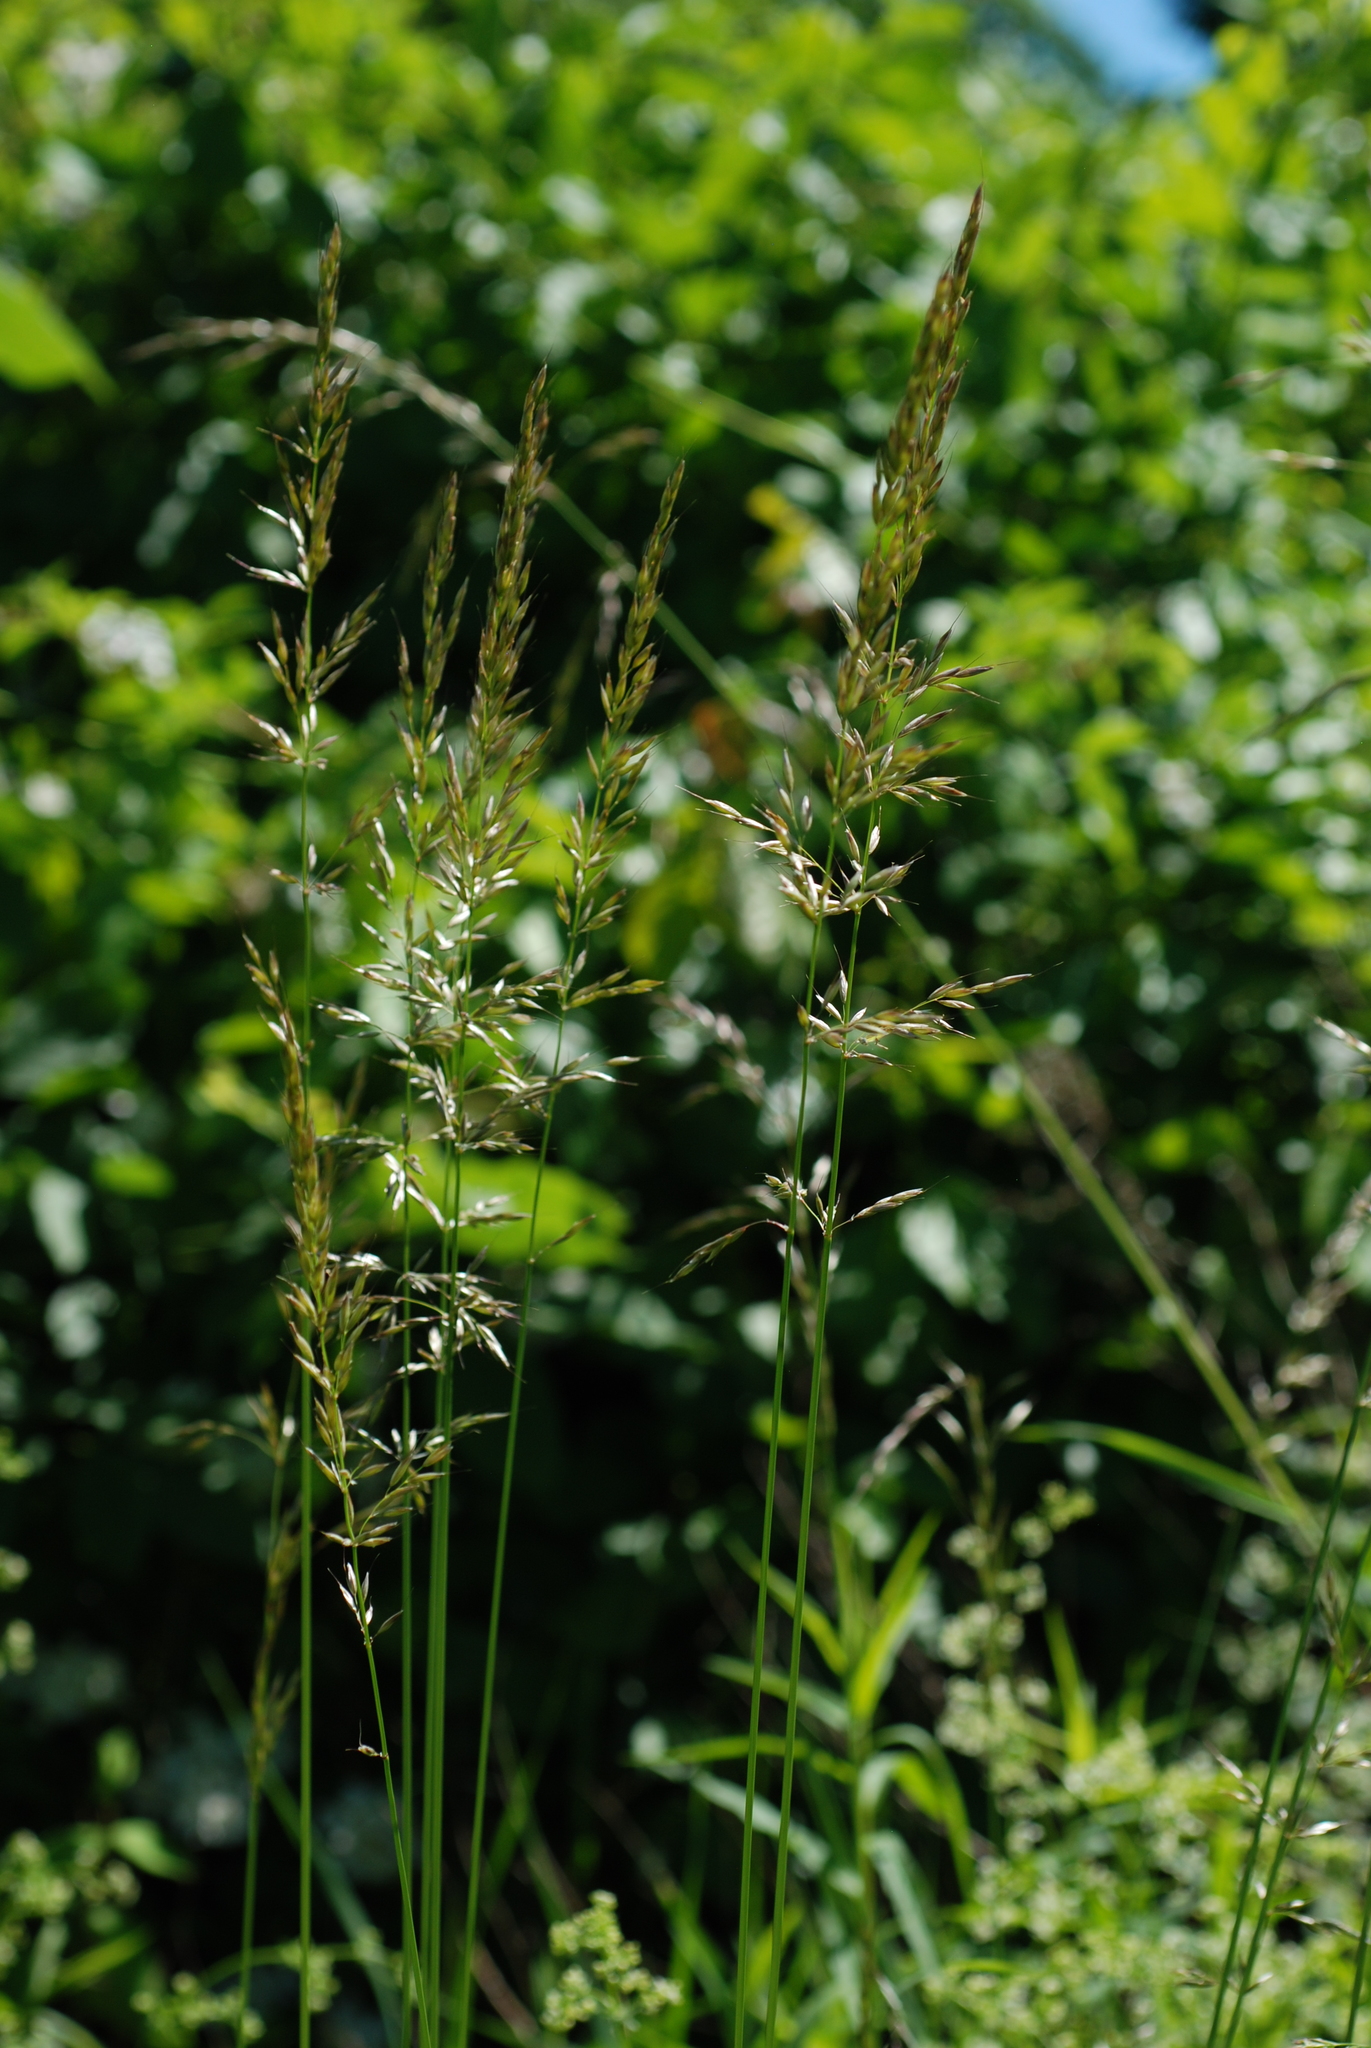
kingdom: Plantae
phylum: Tracheophyta
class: Liliopsida
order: Poales
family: Poaceae
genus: Arrhenatherum
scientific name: Arrhenatherum elatius
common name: Tall oatgrass
